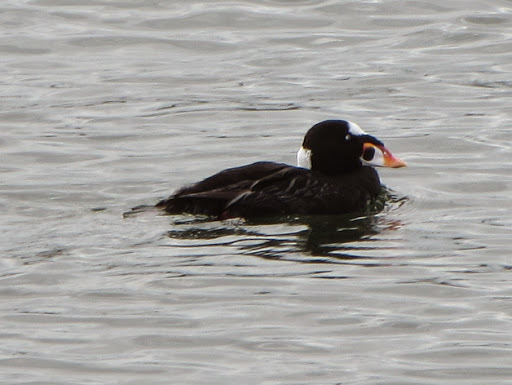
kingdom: Animalia
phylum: Chordata
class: Aves
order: Anseriformes
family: Anatidae
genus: Melanitta
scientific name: Melanitta perspicillata
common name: Surf scoter
